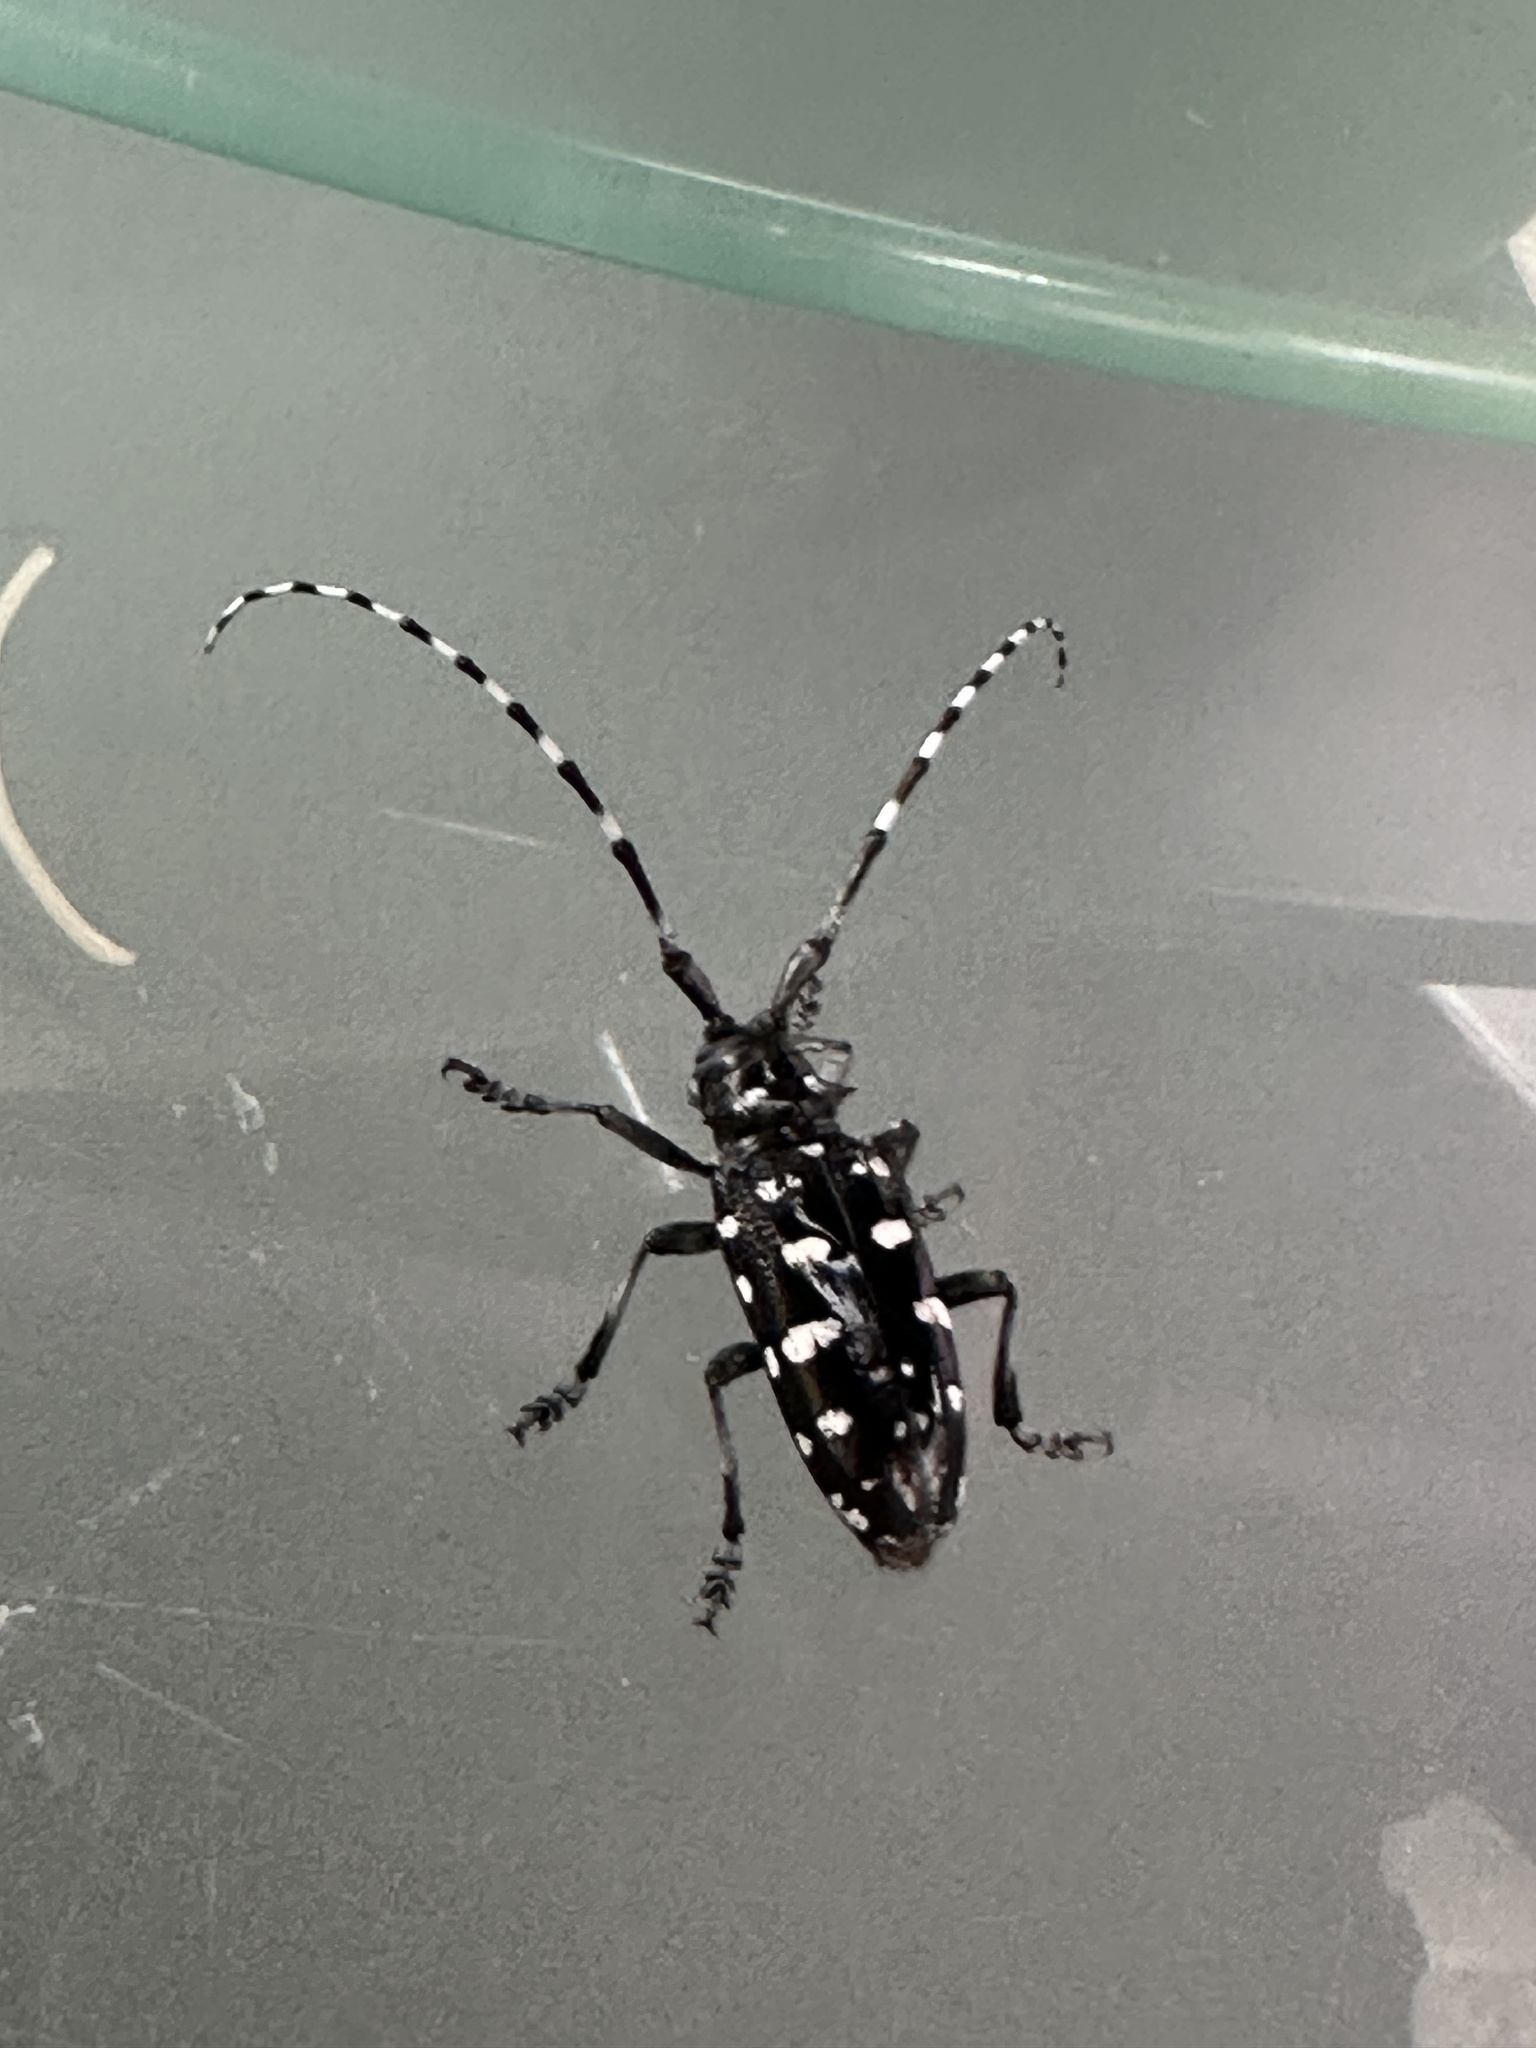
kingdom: Animalia
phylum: Arthropoda
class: Insecta
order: Coleoptera
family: Cerambycidae
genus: Anoplophora
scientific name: Anoplophora macularia
